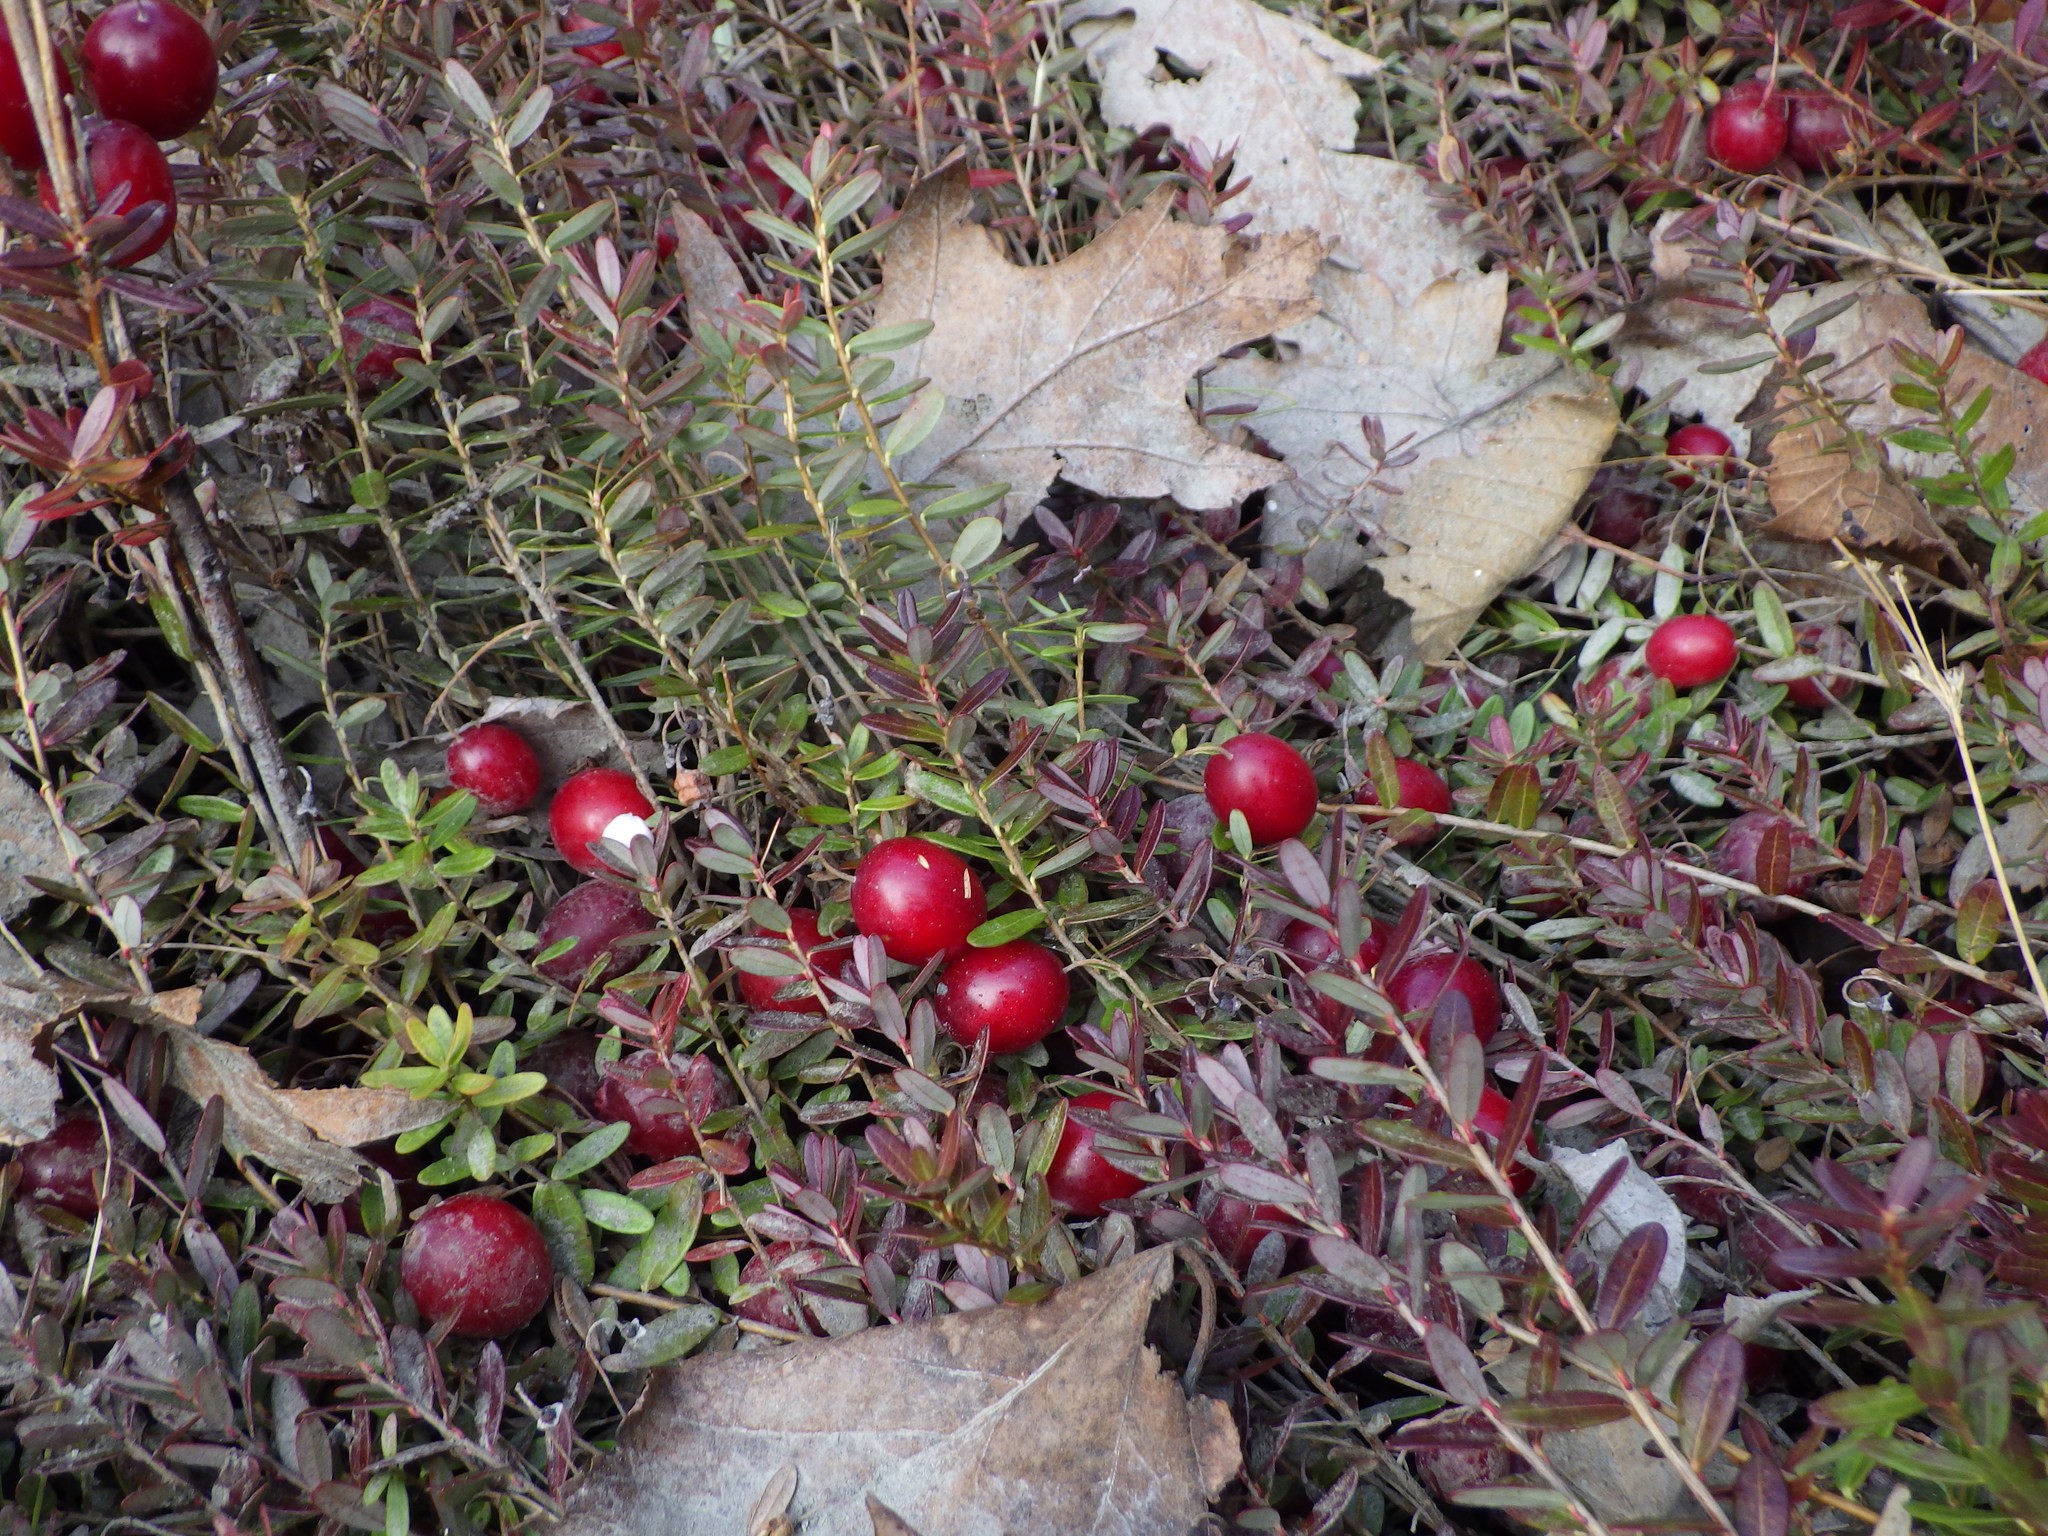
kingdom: Plantae
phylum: Tracheophyta
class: Magnoliopsida
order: Ericales
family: Ericaceae
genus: Vaccinium
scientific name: Vaccinium macrocarpon
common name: American cranberry
